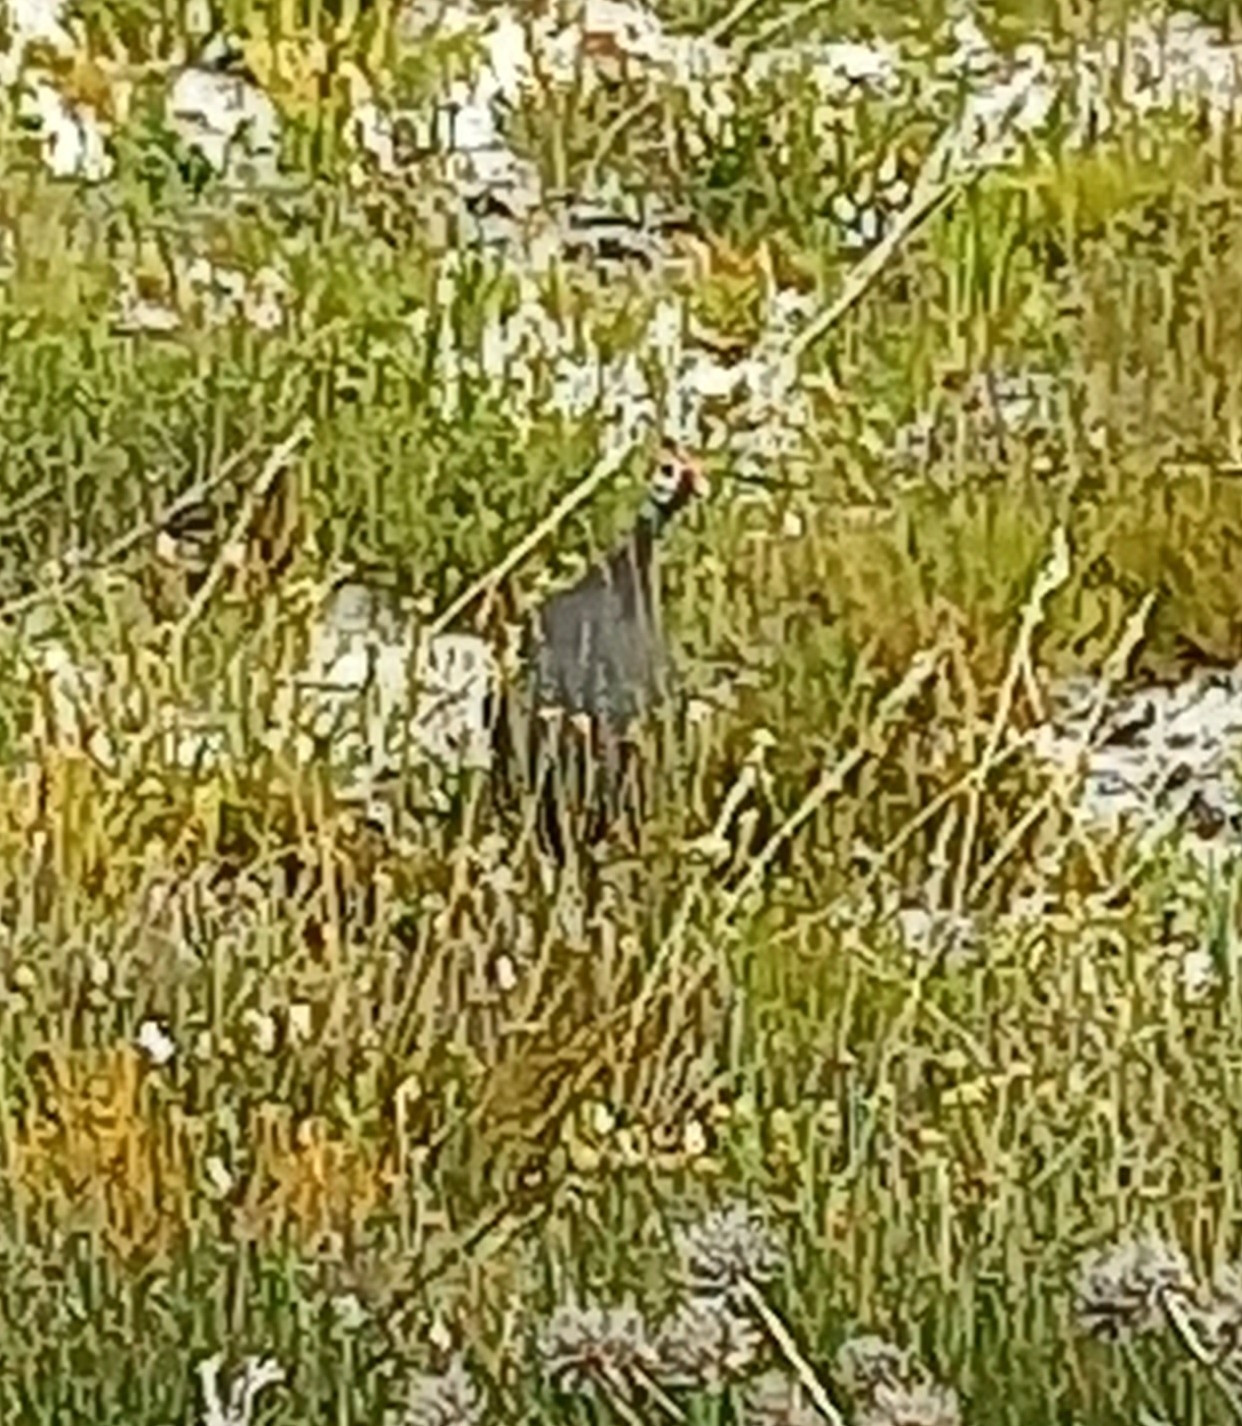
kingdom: Animalia
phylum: Chordata
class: Aves
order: Galliformes
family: Numididae
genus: Numida
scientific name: Numida meleagris
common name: Helmeted guineafowl
